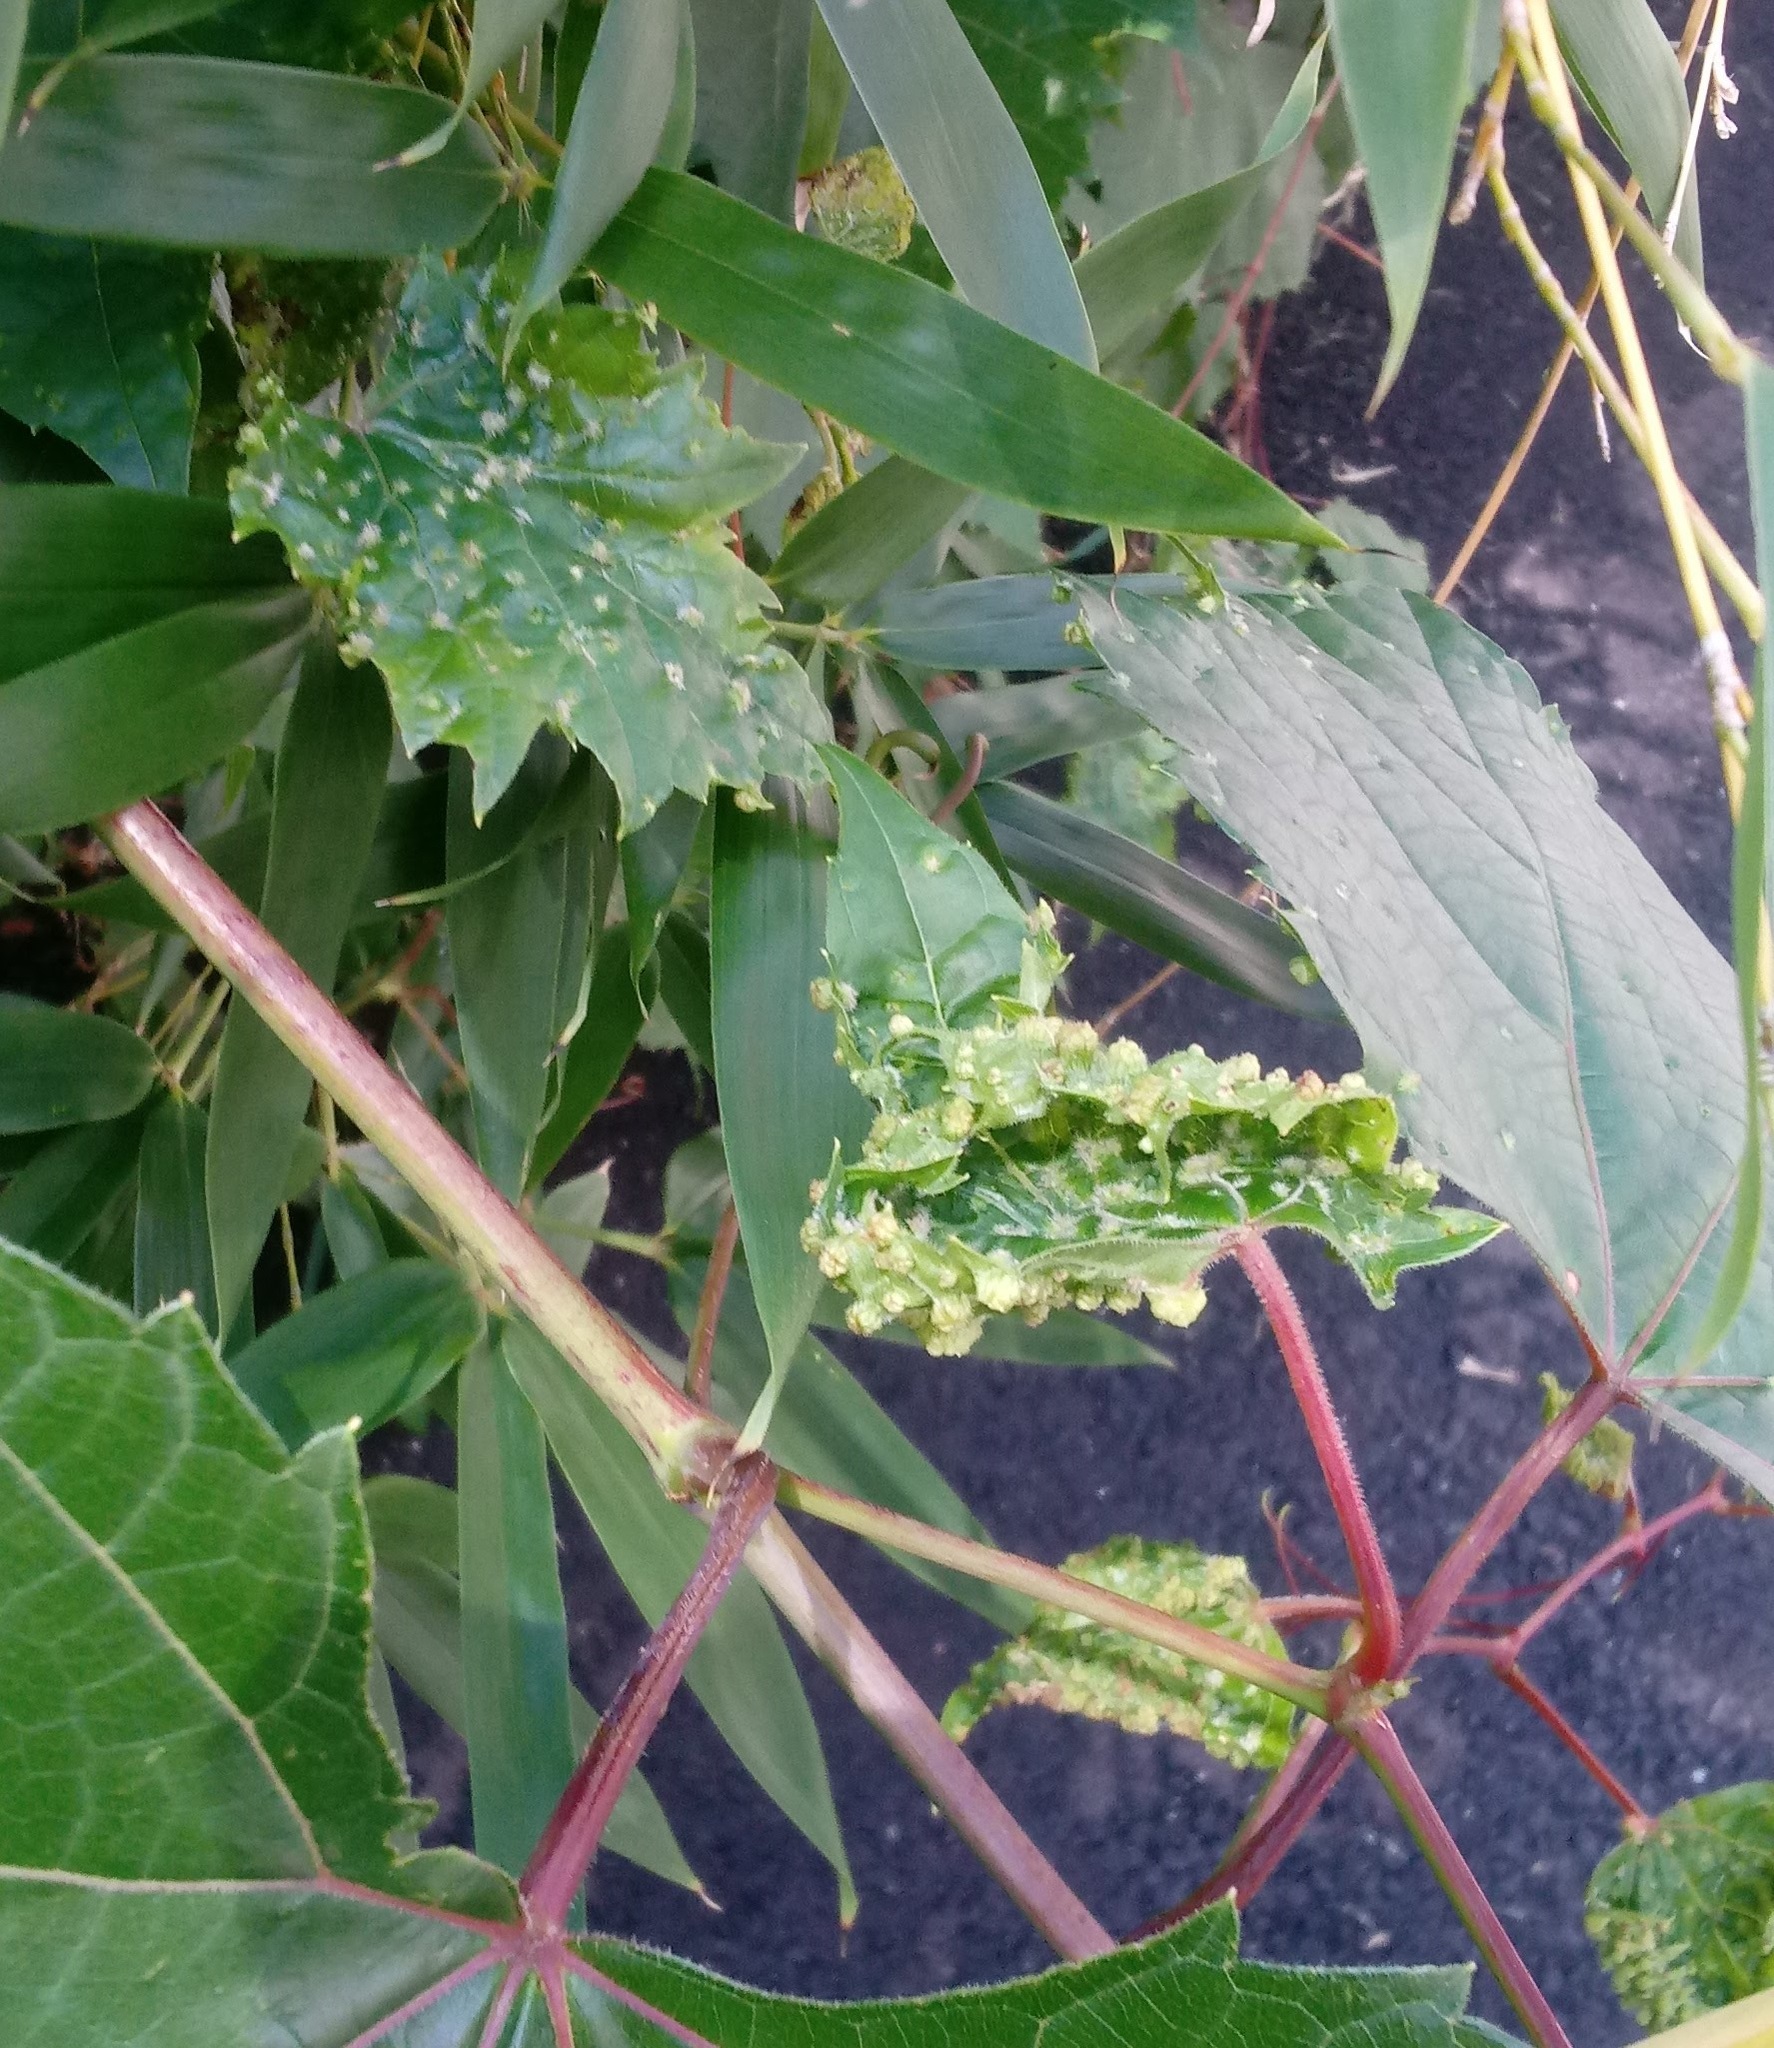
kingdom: Animalia
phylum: Arthropoda
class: Insecta
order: Hemiptera
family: Phylloxeridae
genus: Daktulosphaira
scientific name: Daktulosphaira vitifoliae
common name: Grape phylloxera
